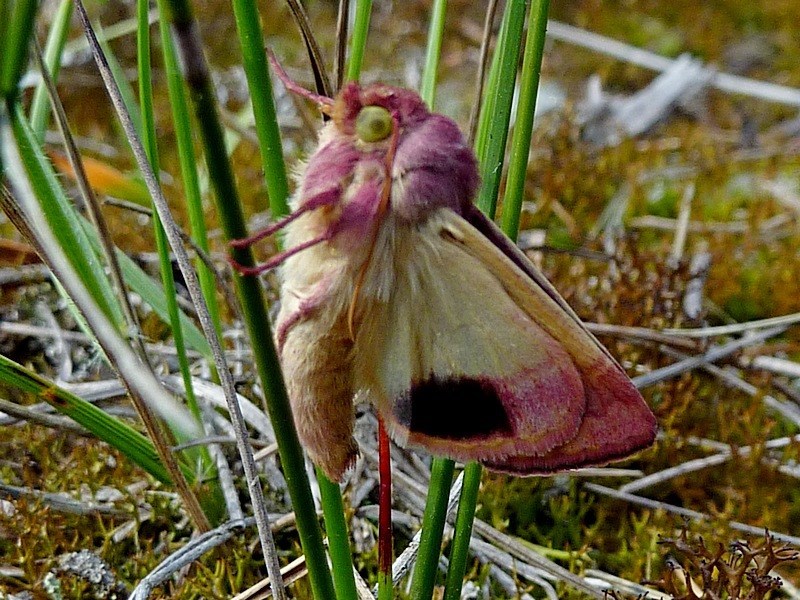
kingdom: Animalia
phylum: Arthropoda
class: Insecta
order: Lepidoptera
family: Noctuidae
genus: Australothis
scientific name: Australothis rubrescens
